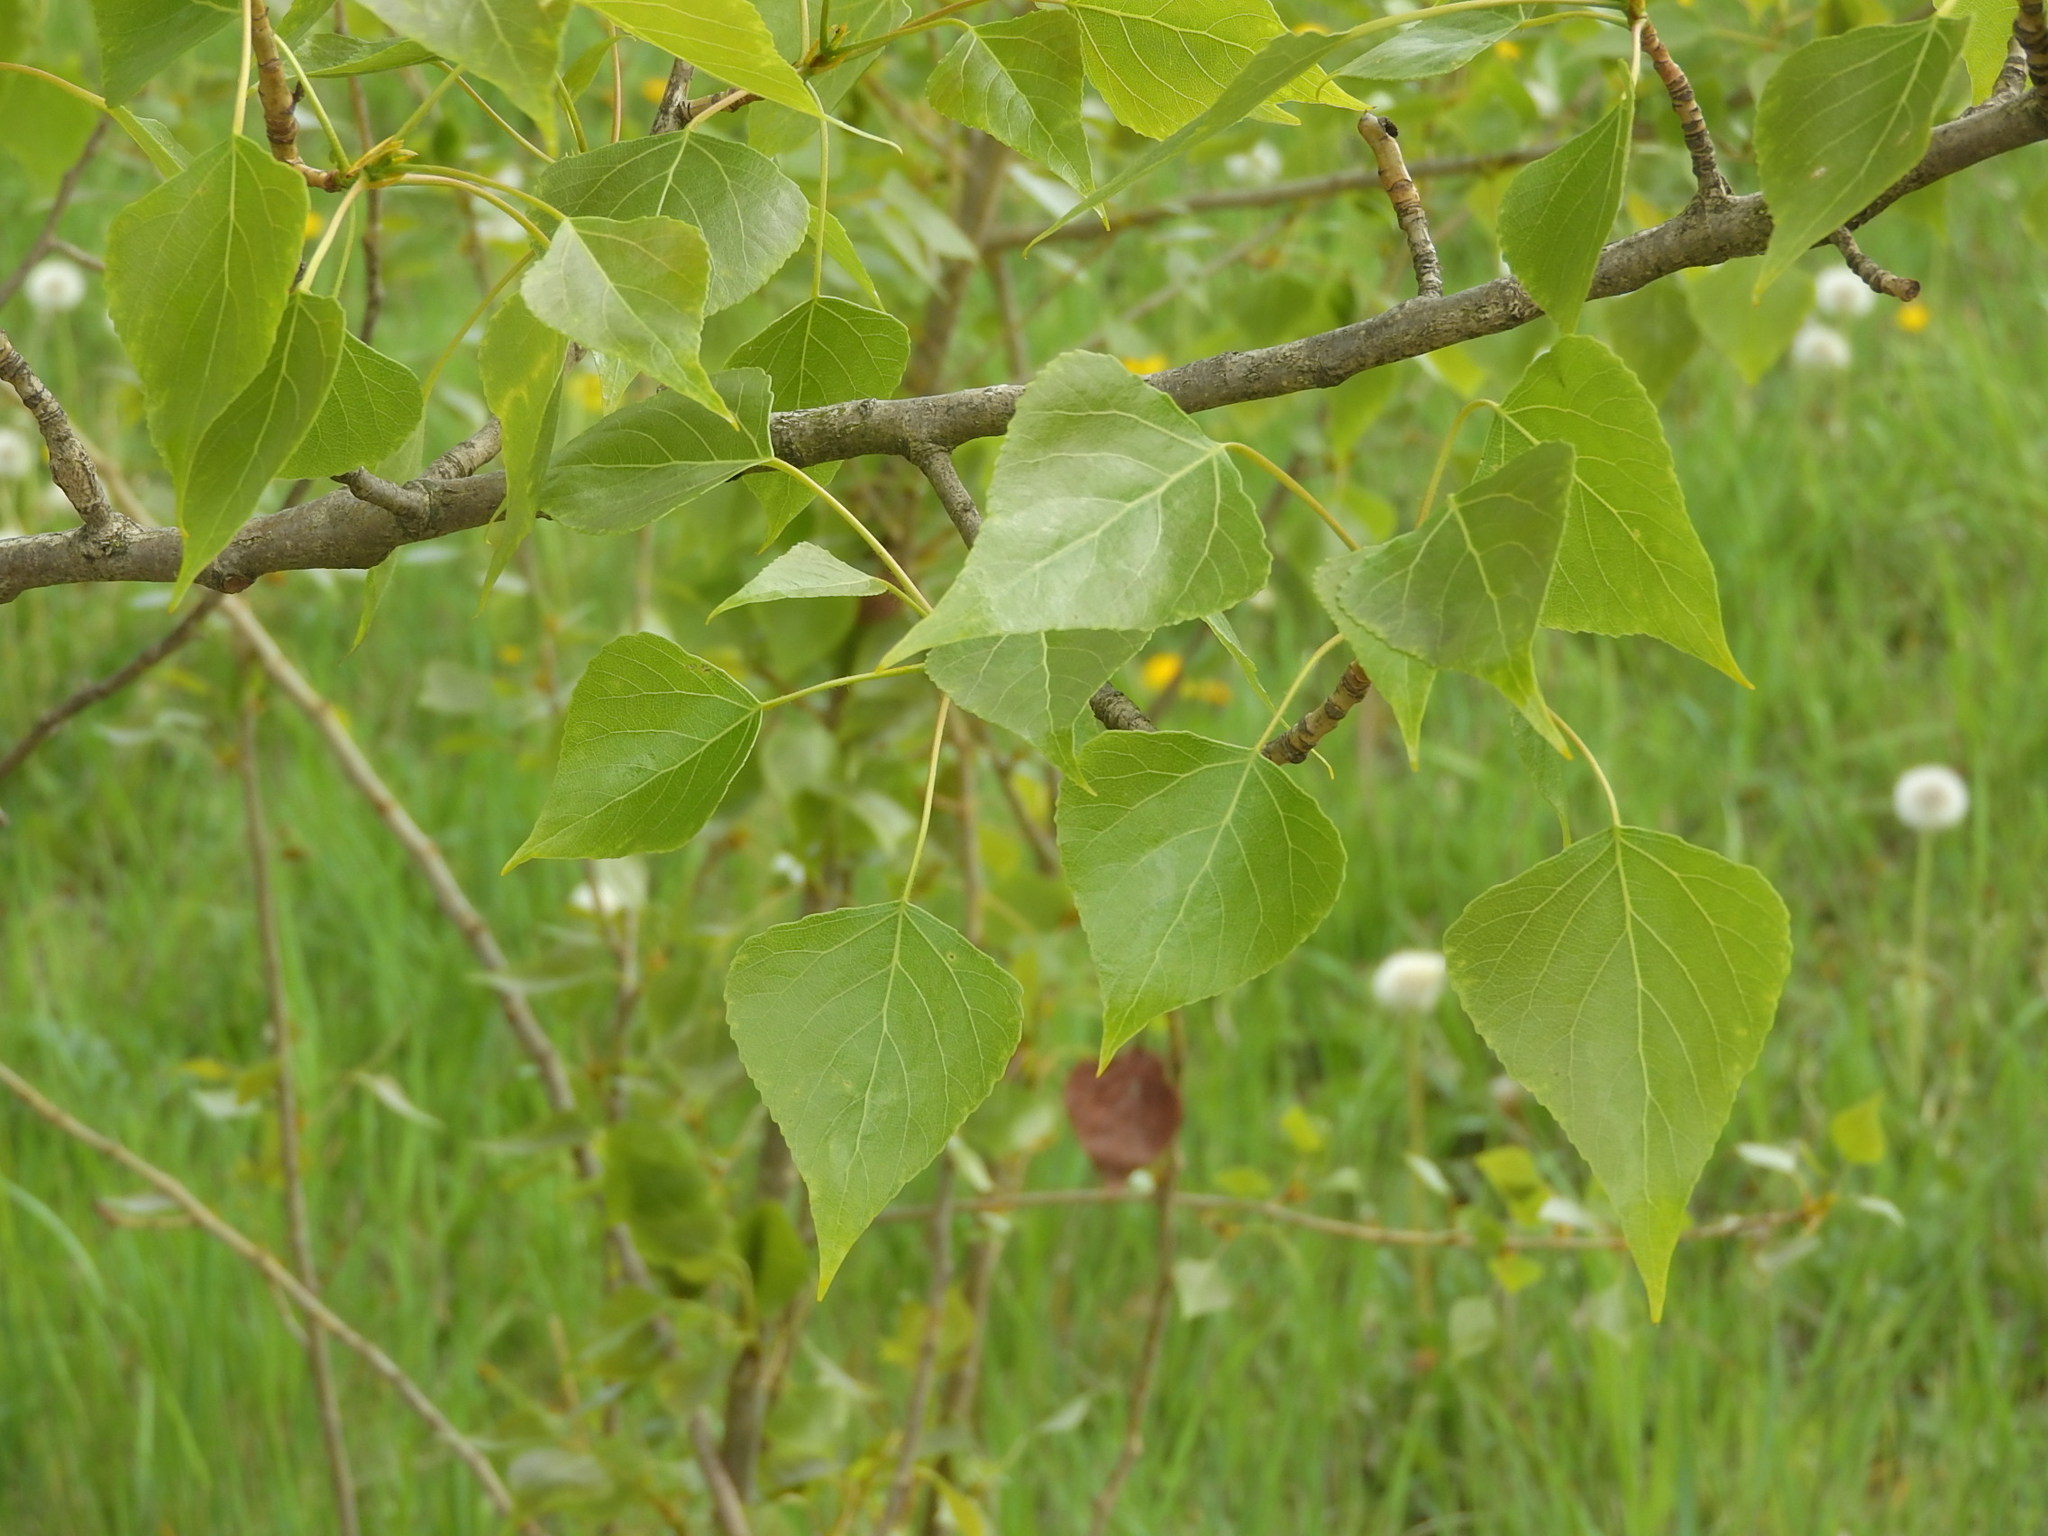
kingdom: Plantae
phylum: Tracheophyta
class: Magnoliopsida
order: Malpighiales
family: Salicaceae
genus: Populus
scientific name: Populus nigra
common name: Black poplar
